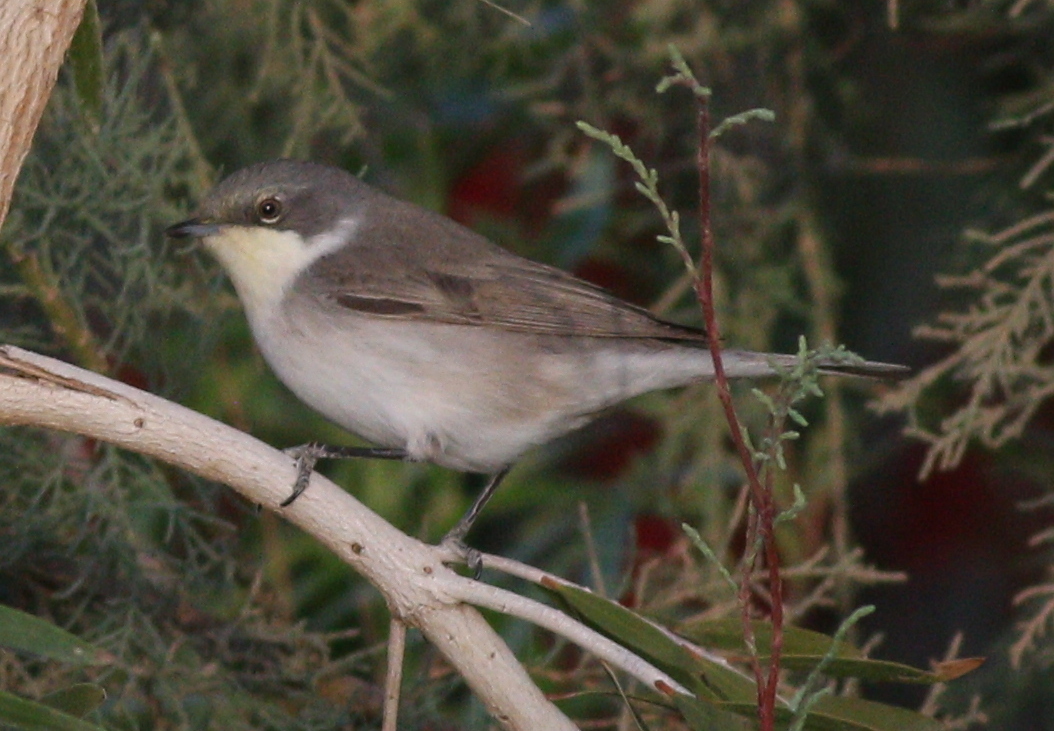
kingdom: Animalia
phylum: Chordata
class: Aves
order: Passeriformes
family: Sylviidae
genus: Sylvia
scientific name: Sylvia curruca
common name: Lesser whitethroat
